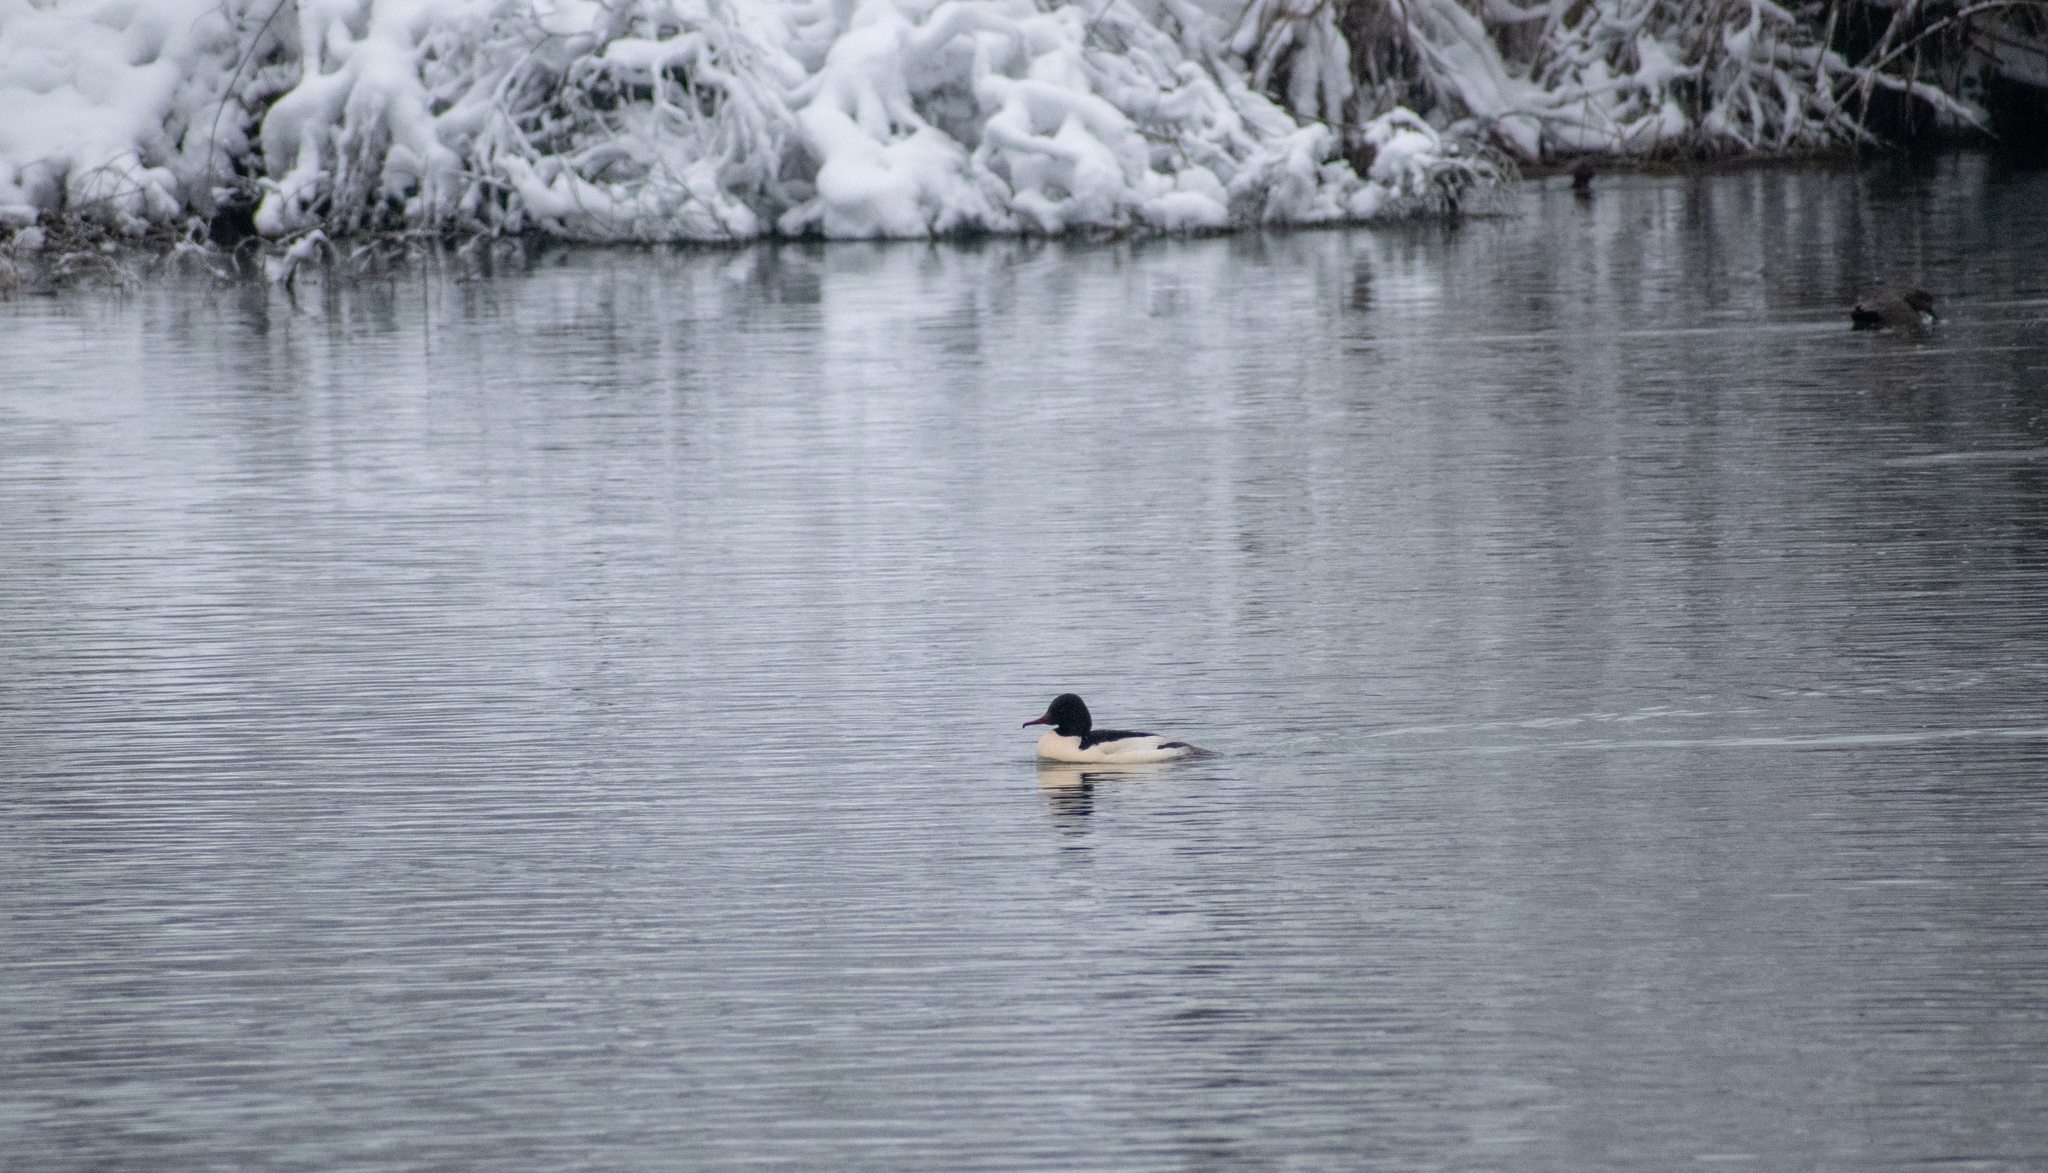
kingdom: Animalia
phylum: Chordata
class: Aves
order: Anseriformes
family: Anatidae
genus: Mergus
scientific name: Mergus merganser
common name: Common merganser
